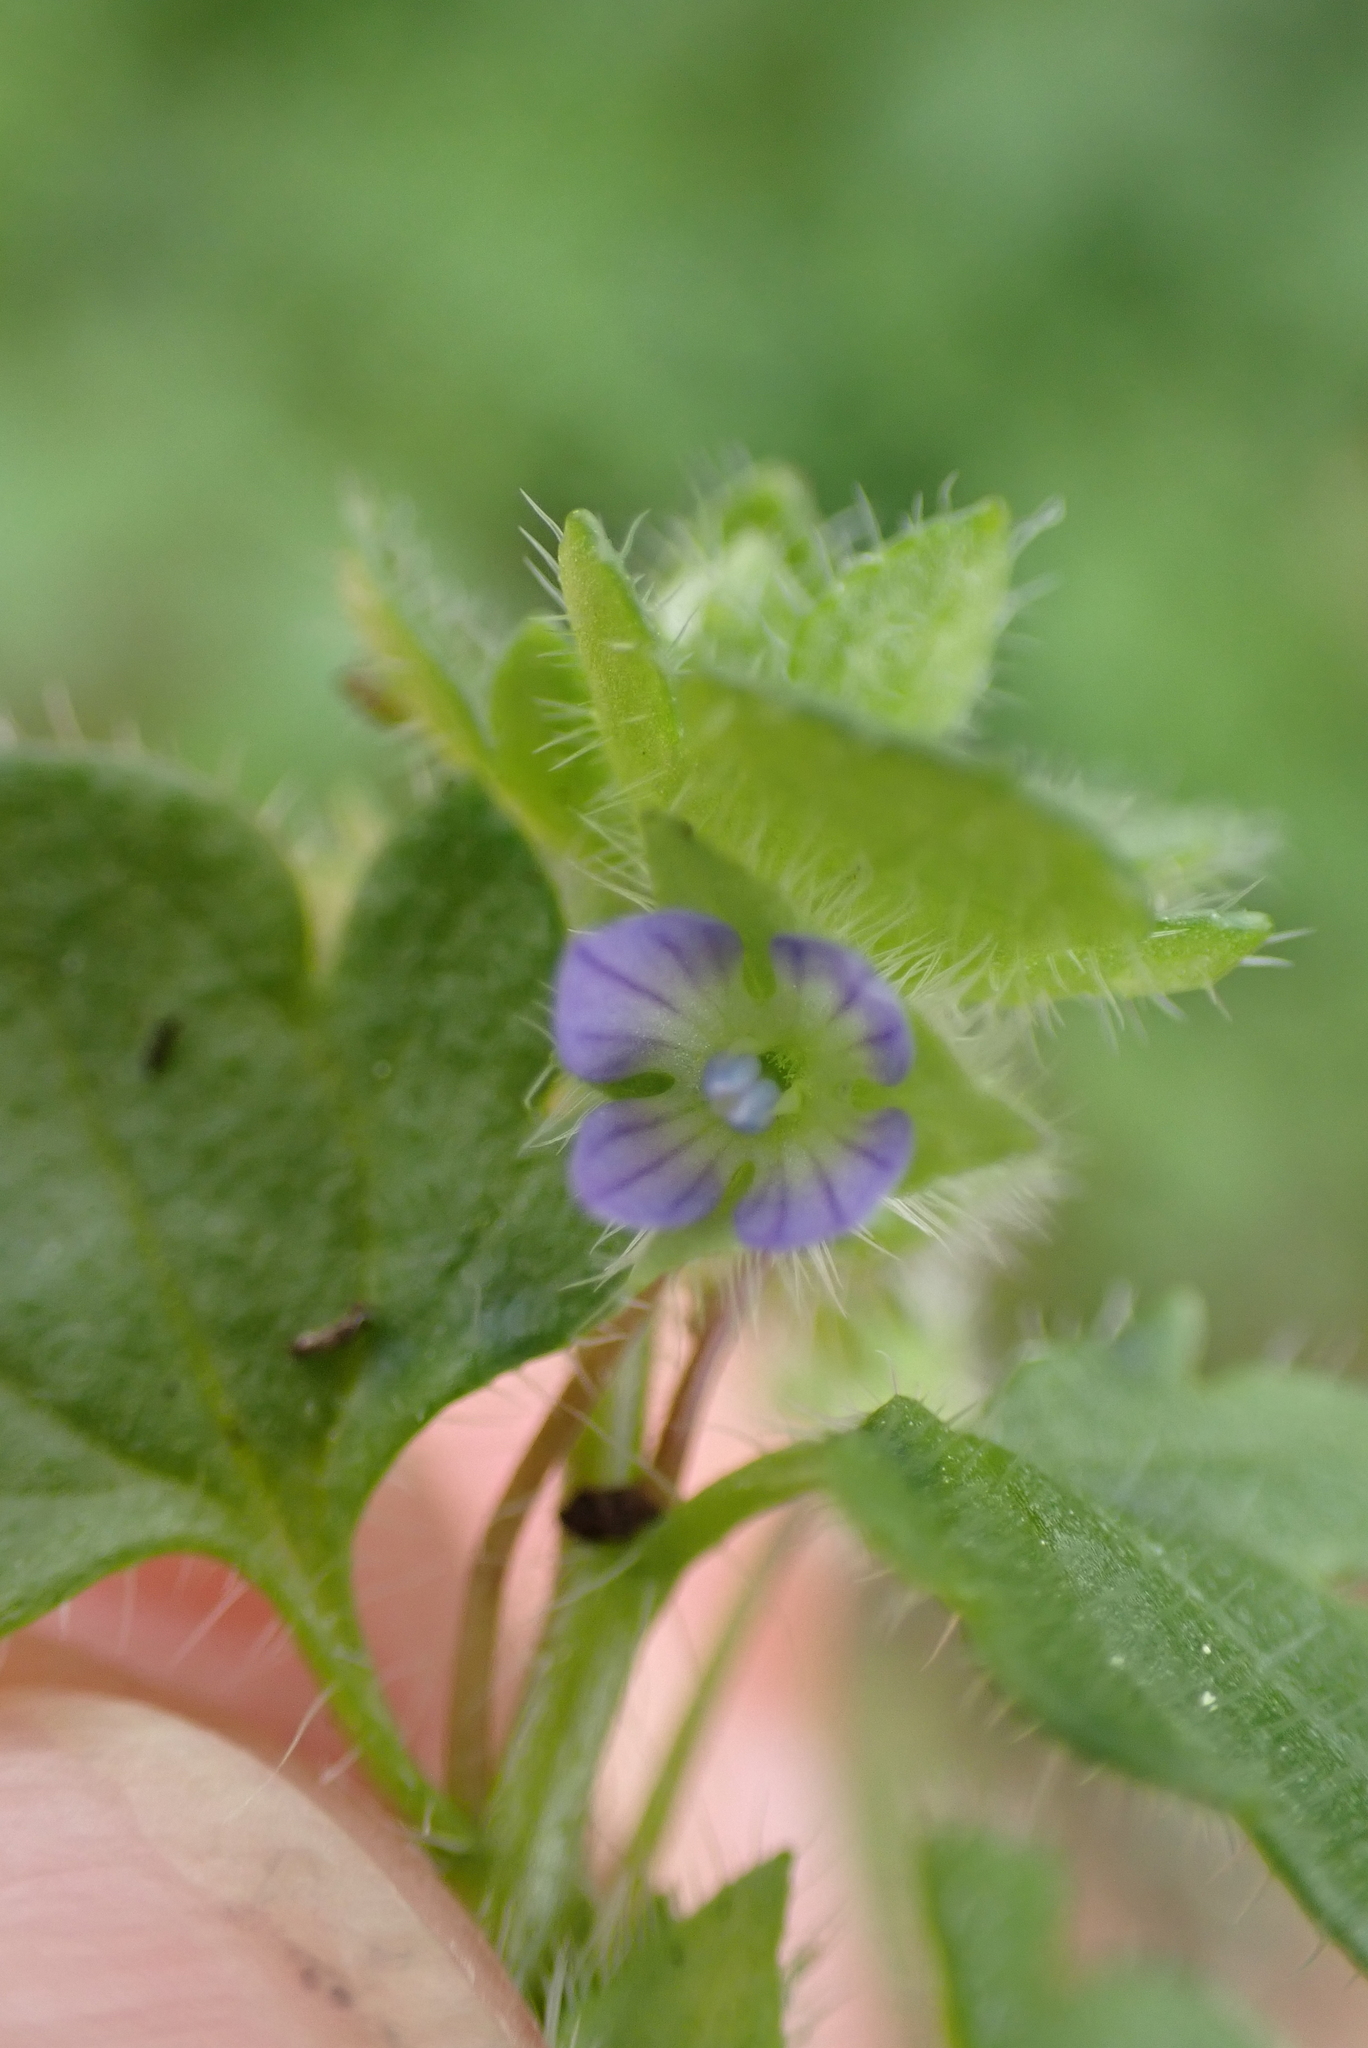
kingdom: Plantae
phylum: Tracheophyta
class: Magnoliopsida
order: Lamiales
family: Plantaginaceae
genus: Veronica
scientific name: Veronica hederifolia
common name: Ivy-leaved speedwell
